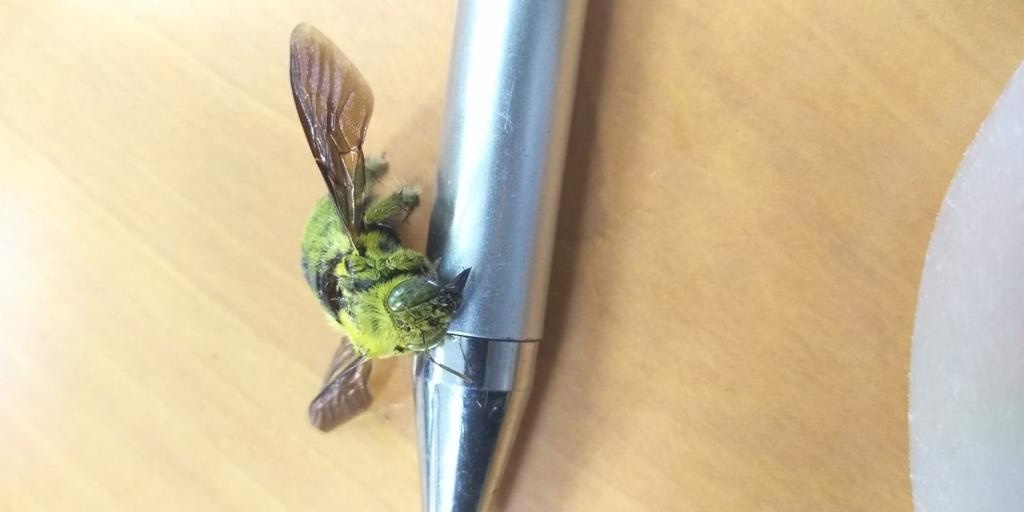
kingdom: Animalia
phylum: Arthropoda
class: Insecta
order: Hymenoptera
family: Apidae
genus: Xylocopa
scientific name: Xylocopa pubescens
